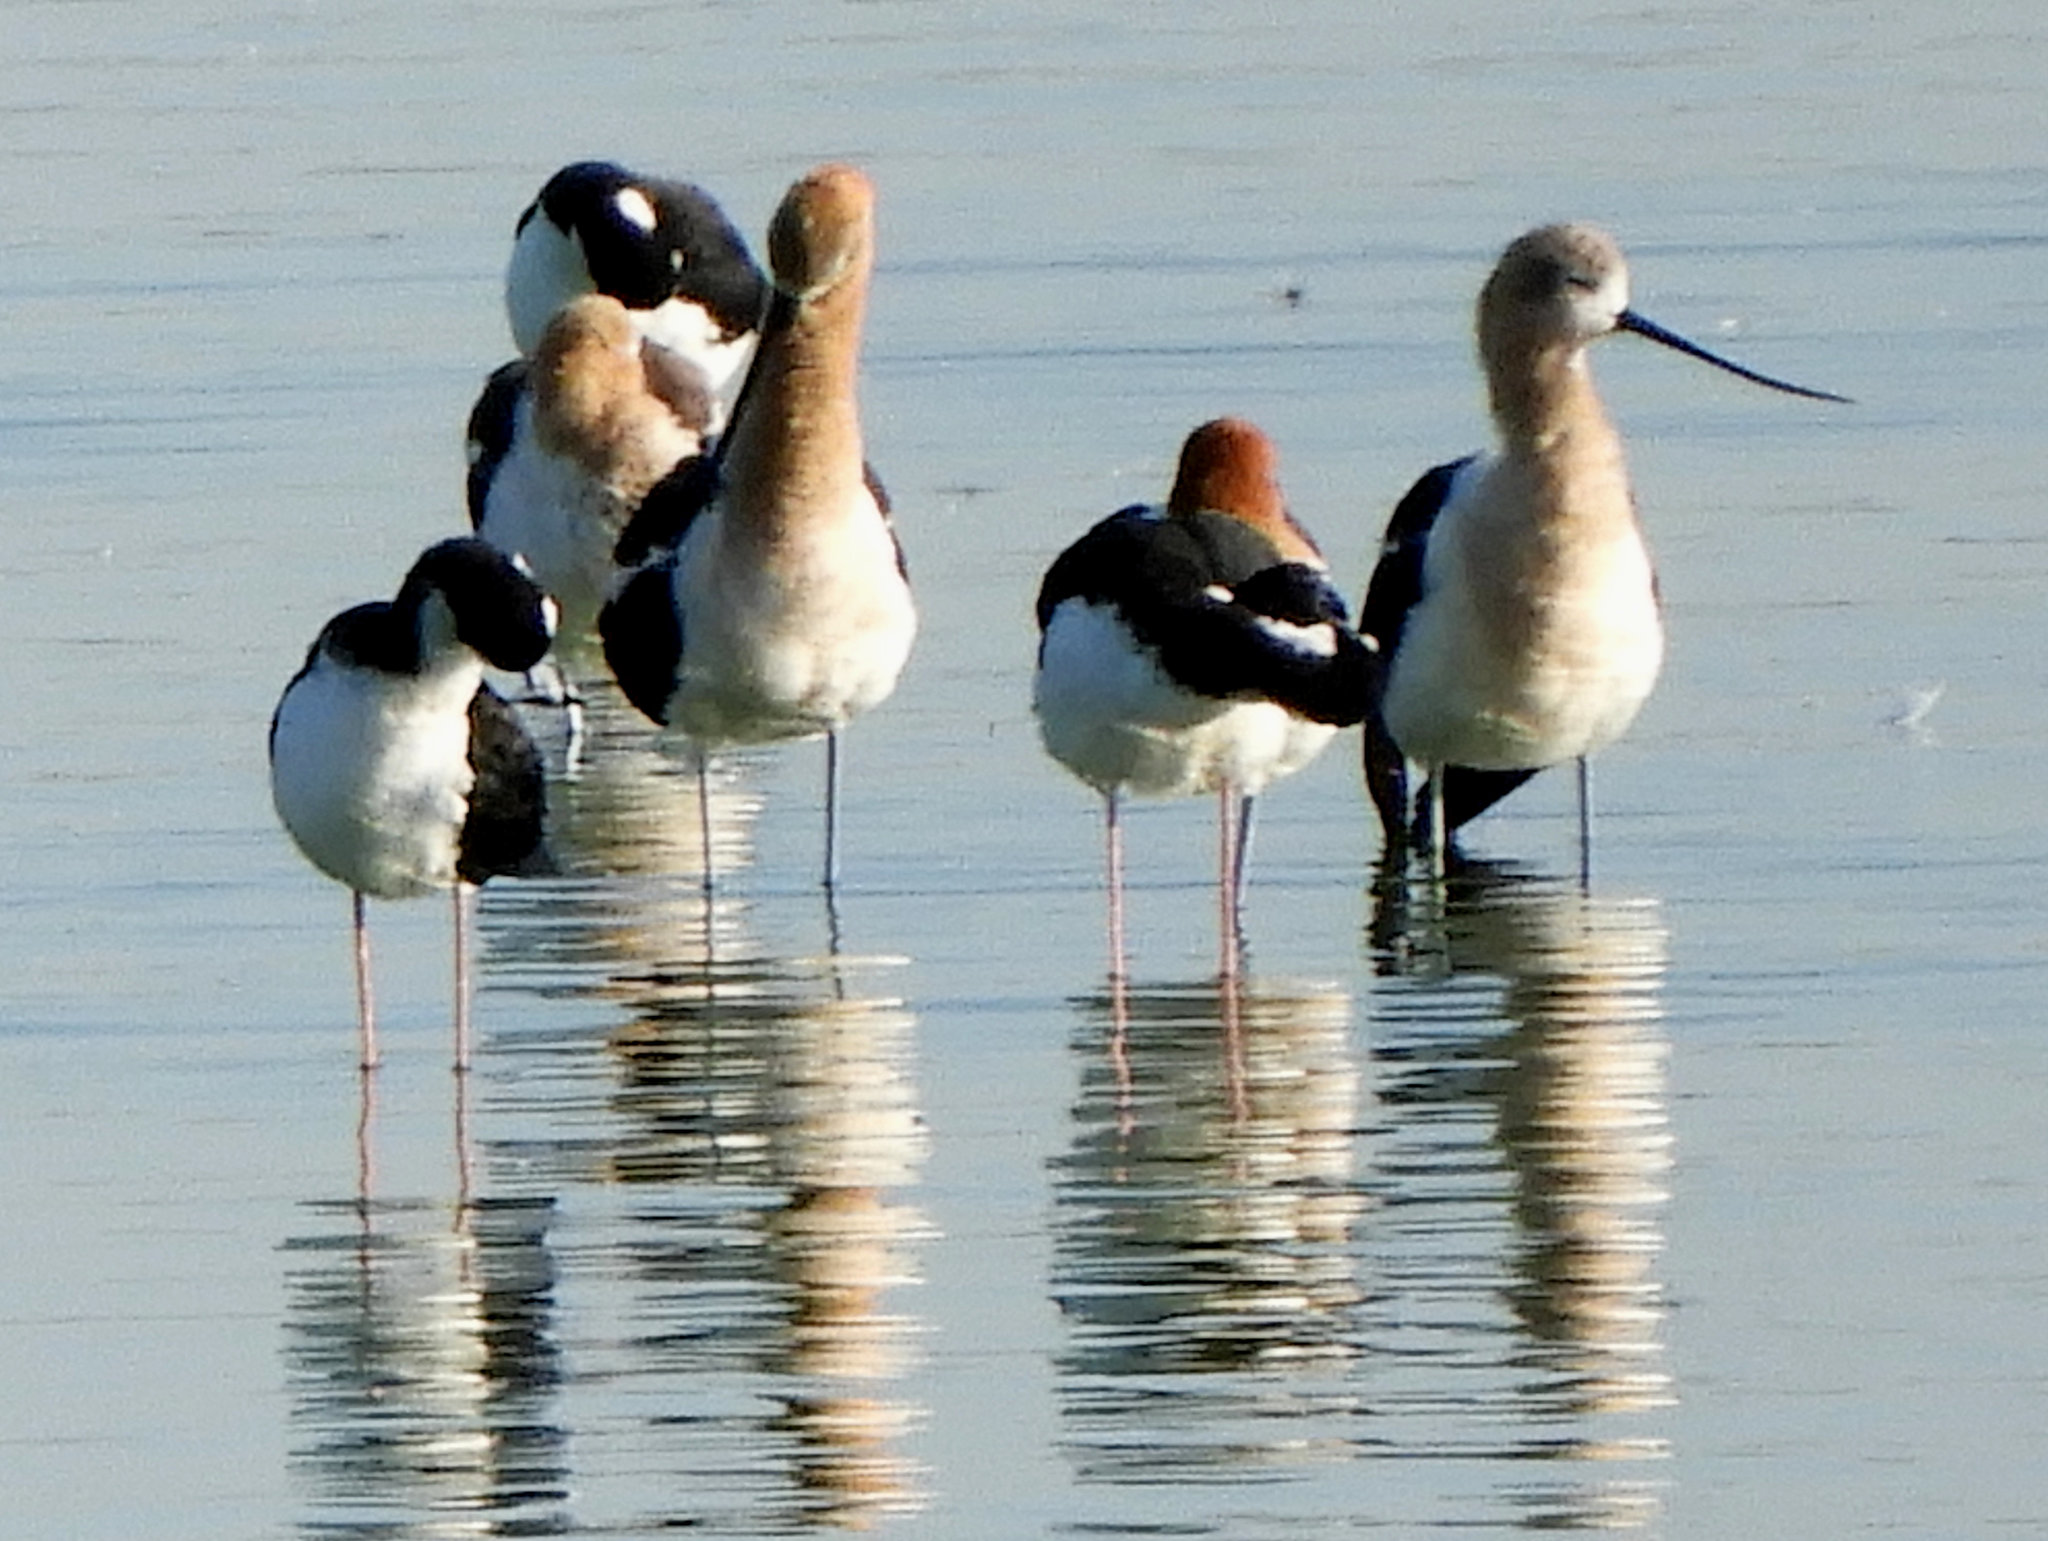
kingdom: Animalia
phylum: Chordata
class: Aves
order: Charadriiformes
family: Recurvirostridae
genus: Recurvirostra
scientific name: Recurvirostra americana
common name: American avocet
